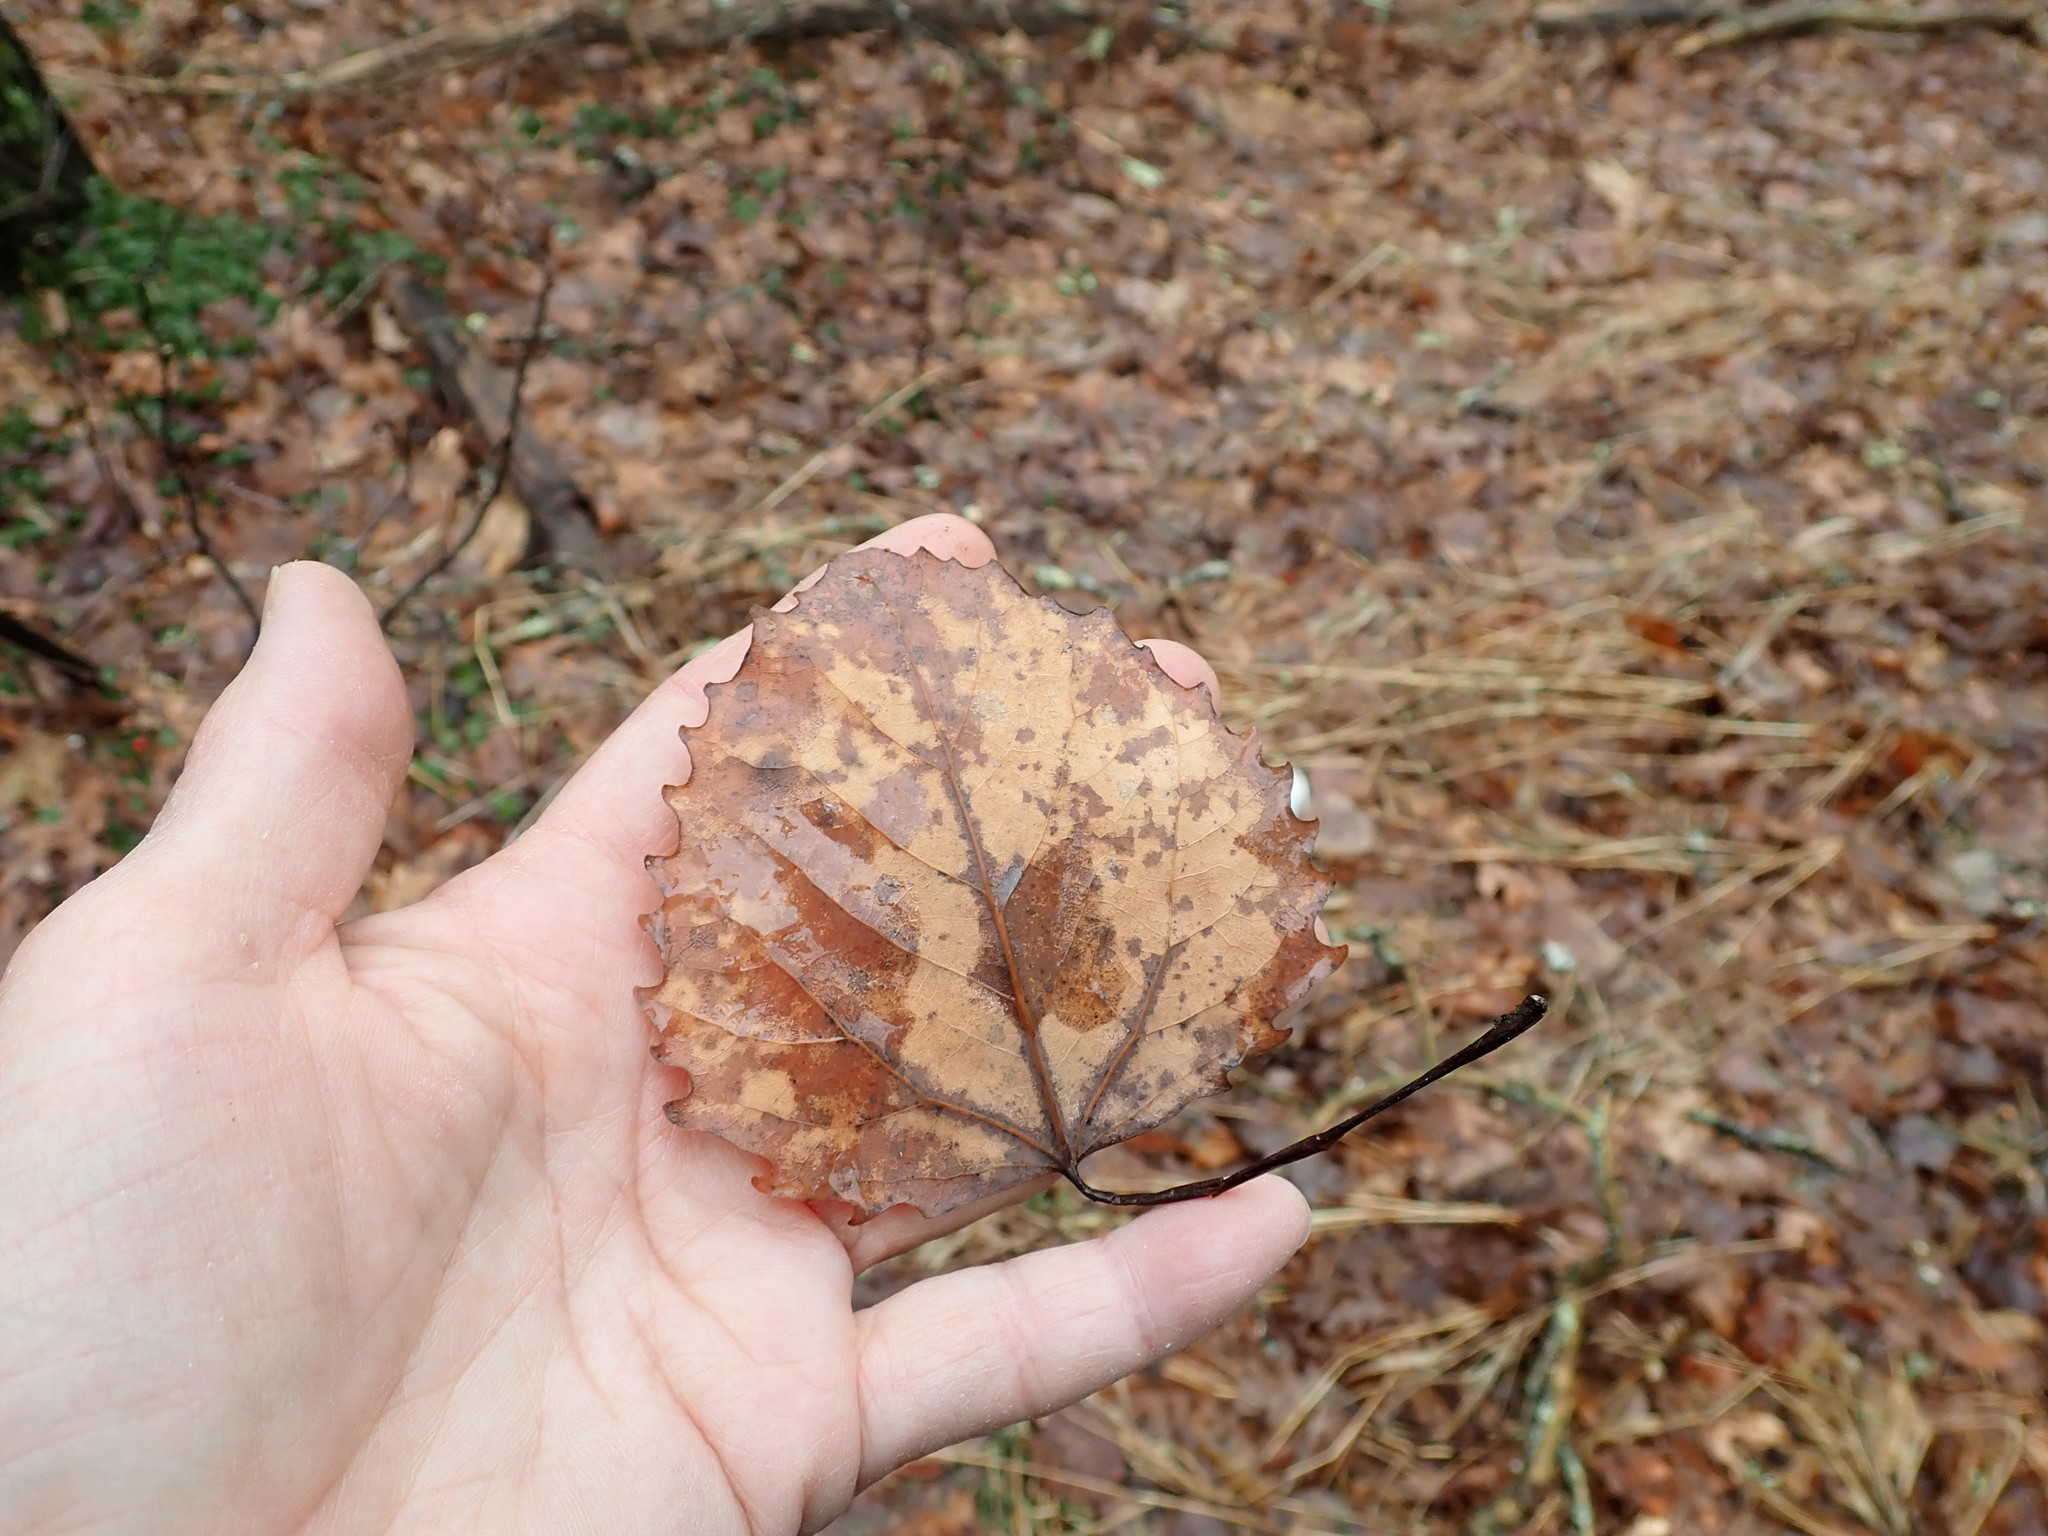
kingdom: Plantae
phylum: Tracheophyta
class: Magnoliopsida
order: Malpighiales
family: Salicaceae
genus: Populus
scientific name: Populus grandidentata
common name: Bigtooth aspen
